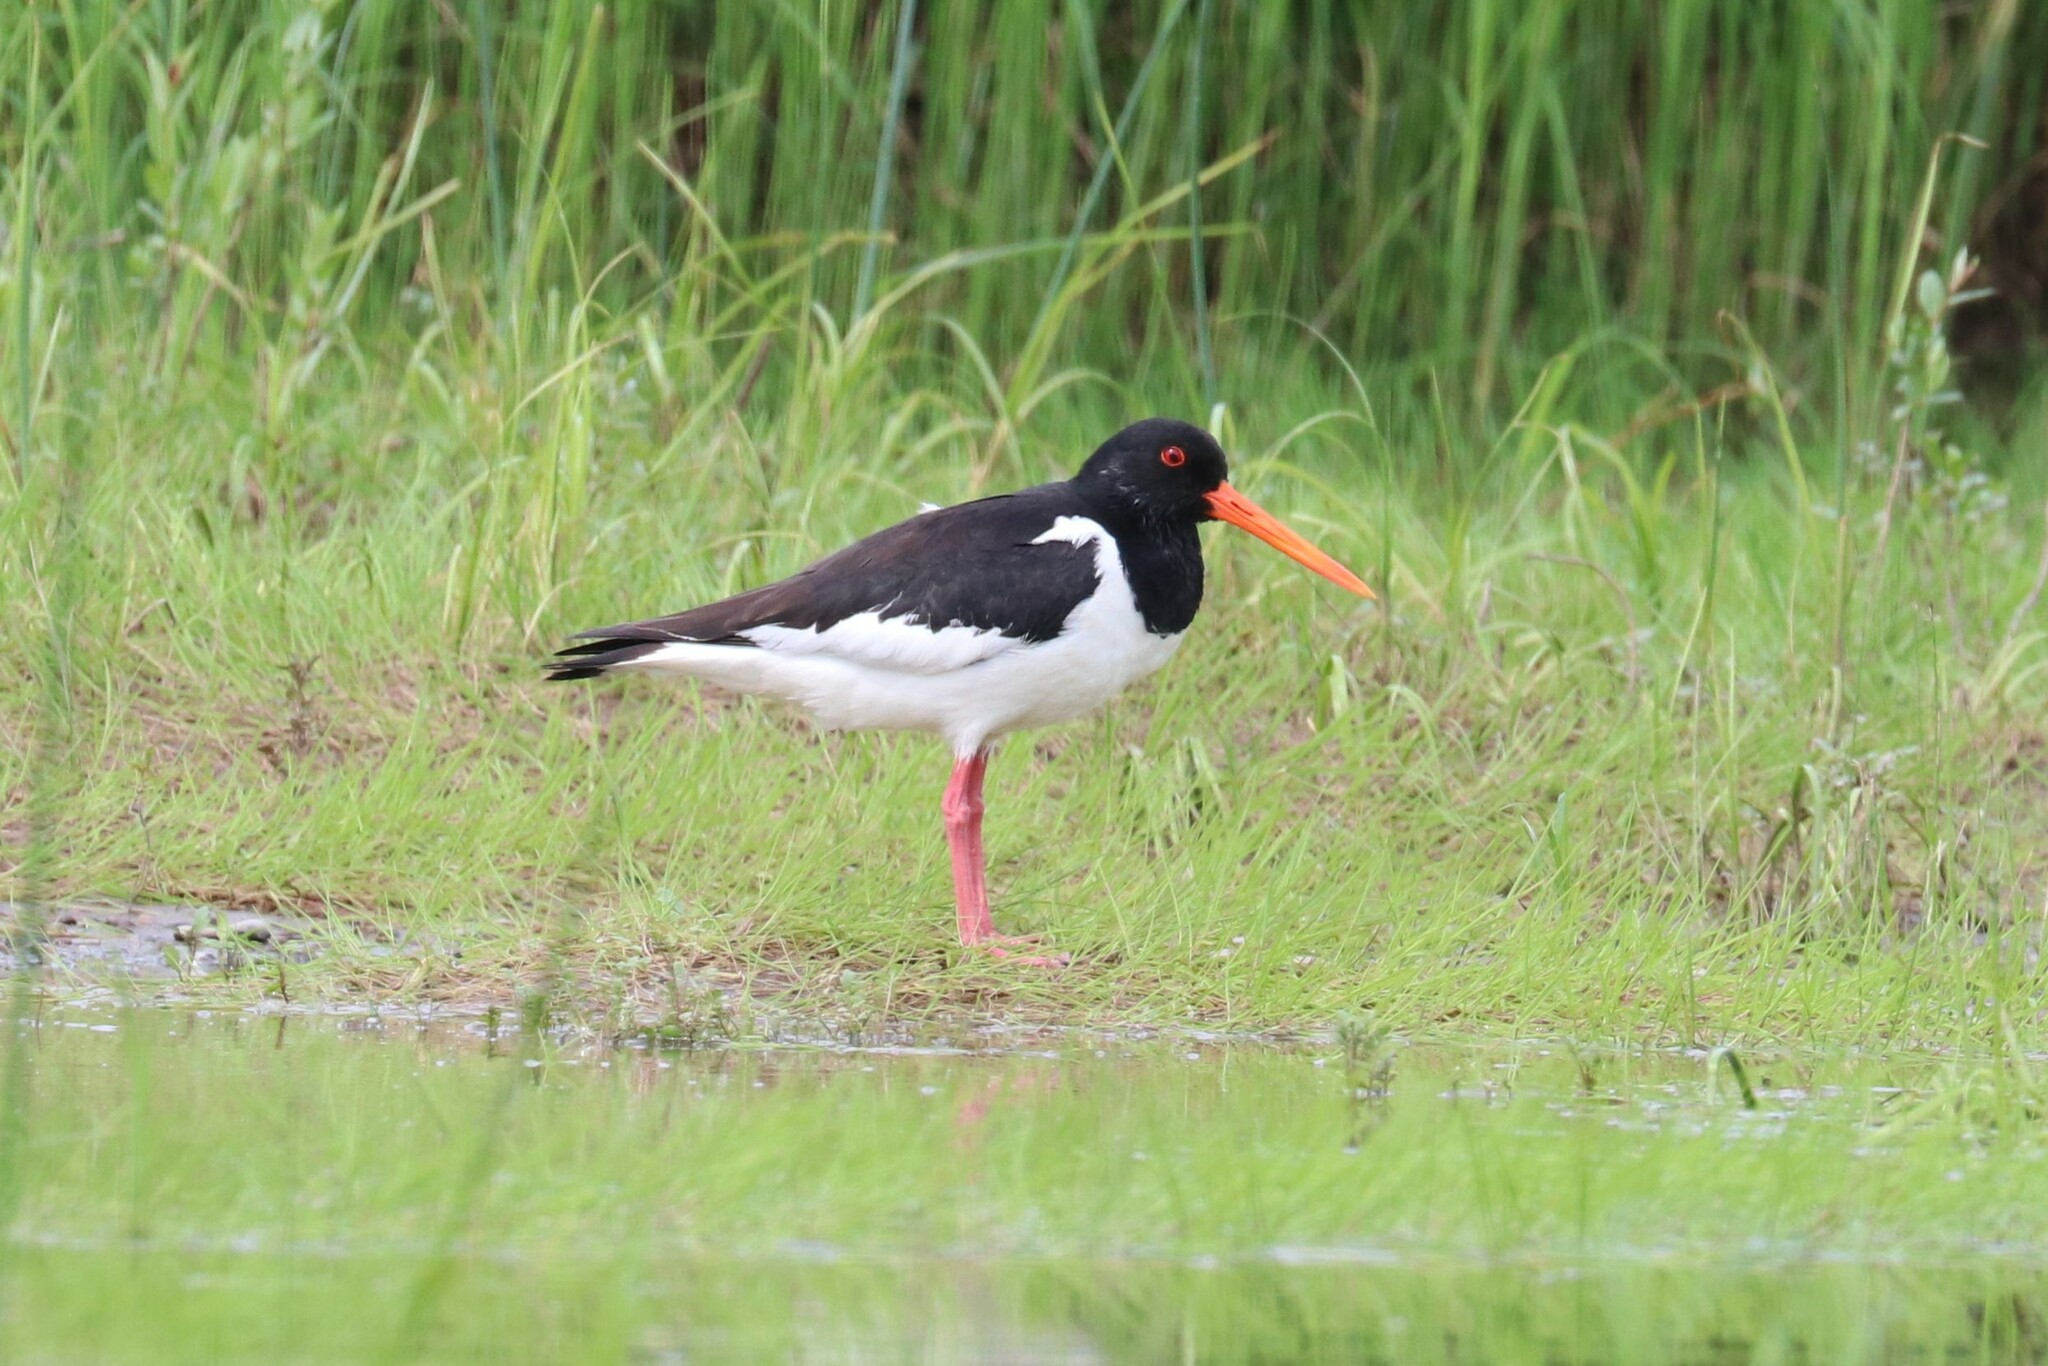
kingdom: Animalia
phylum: Chordata
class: Aves
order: Charadriiformes
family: Haematopodidae
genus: Haematopus
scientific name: Haematopus ostralegus
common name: Eurasian oystercatcher
